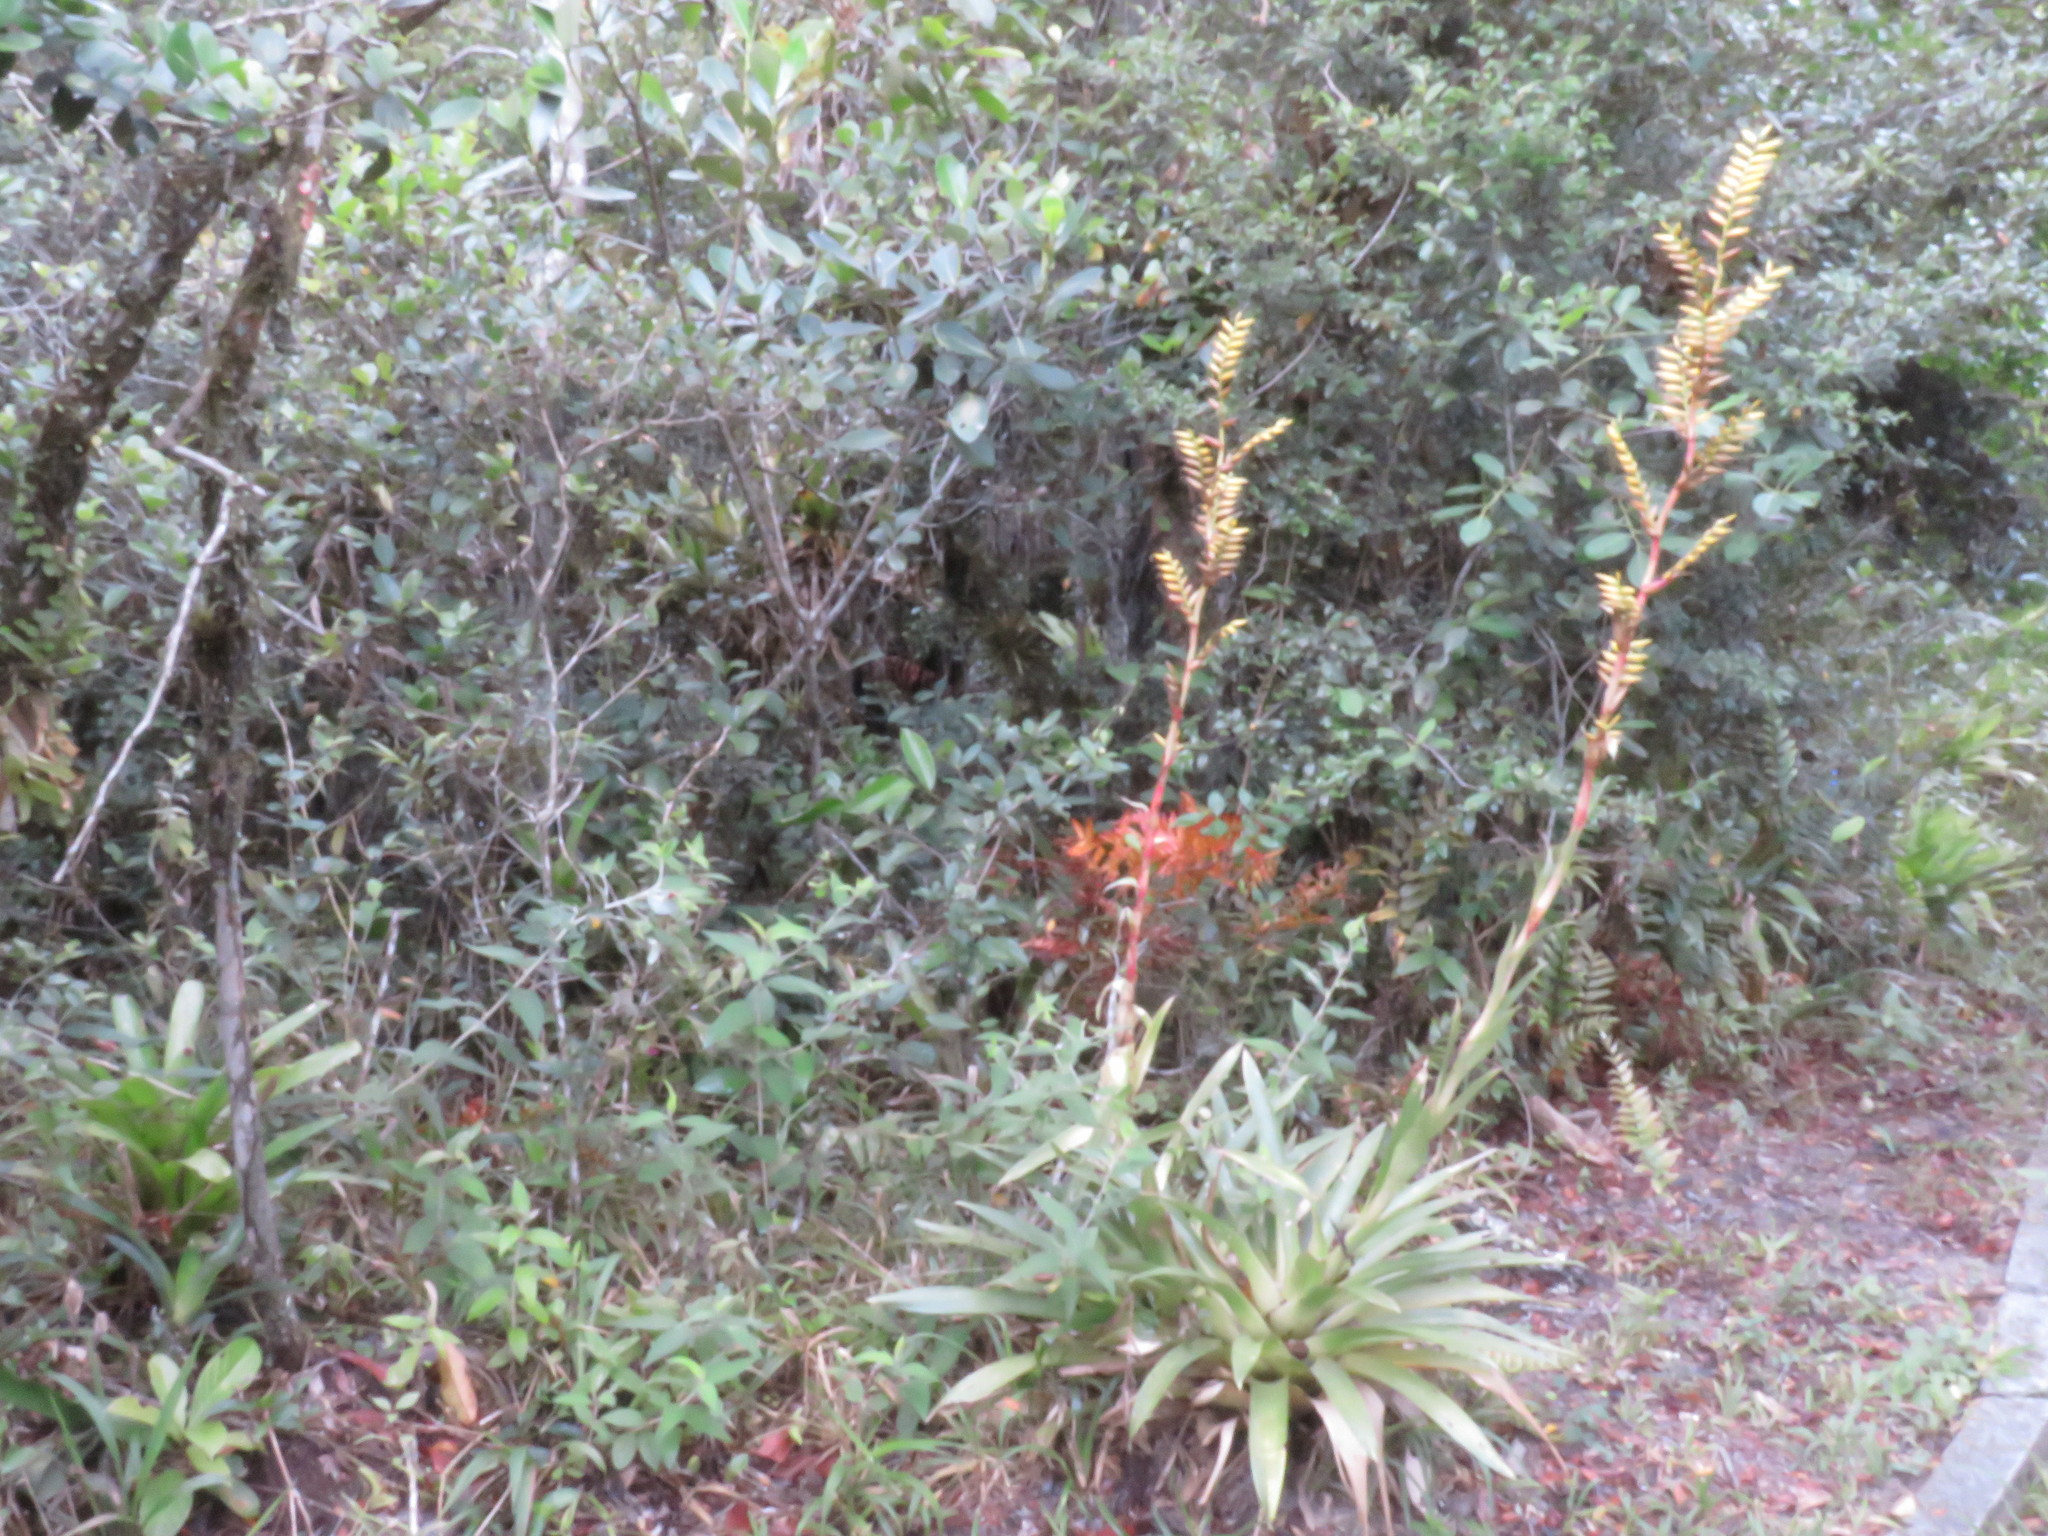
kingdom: Plantae
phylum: Tracheophyta
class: Liliopsida
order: Poales
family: Bromeliaceae
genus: Vriesea
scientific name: Vriesea friburgensis
